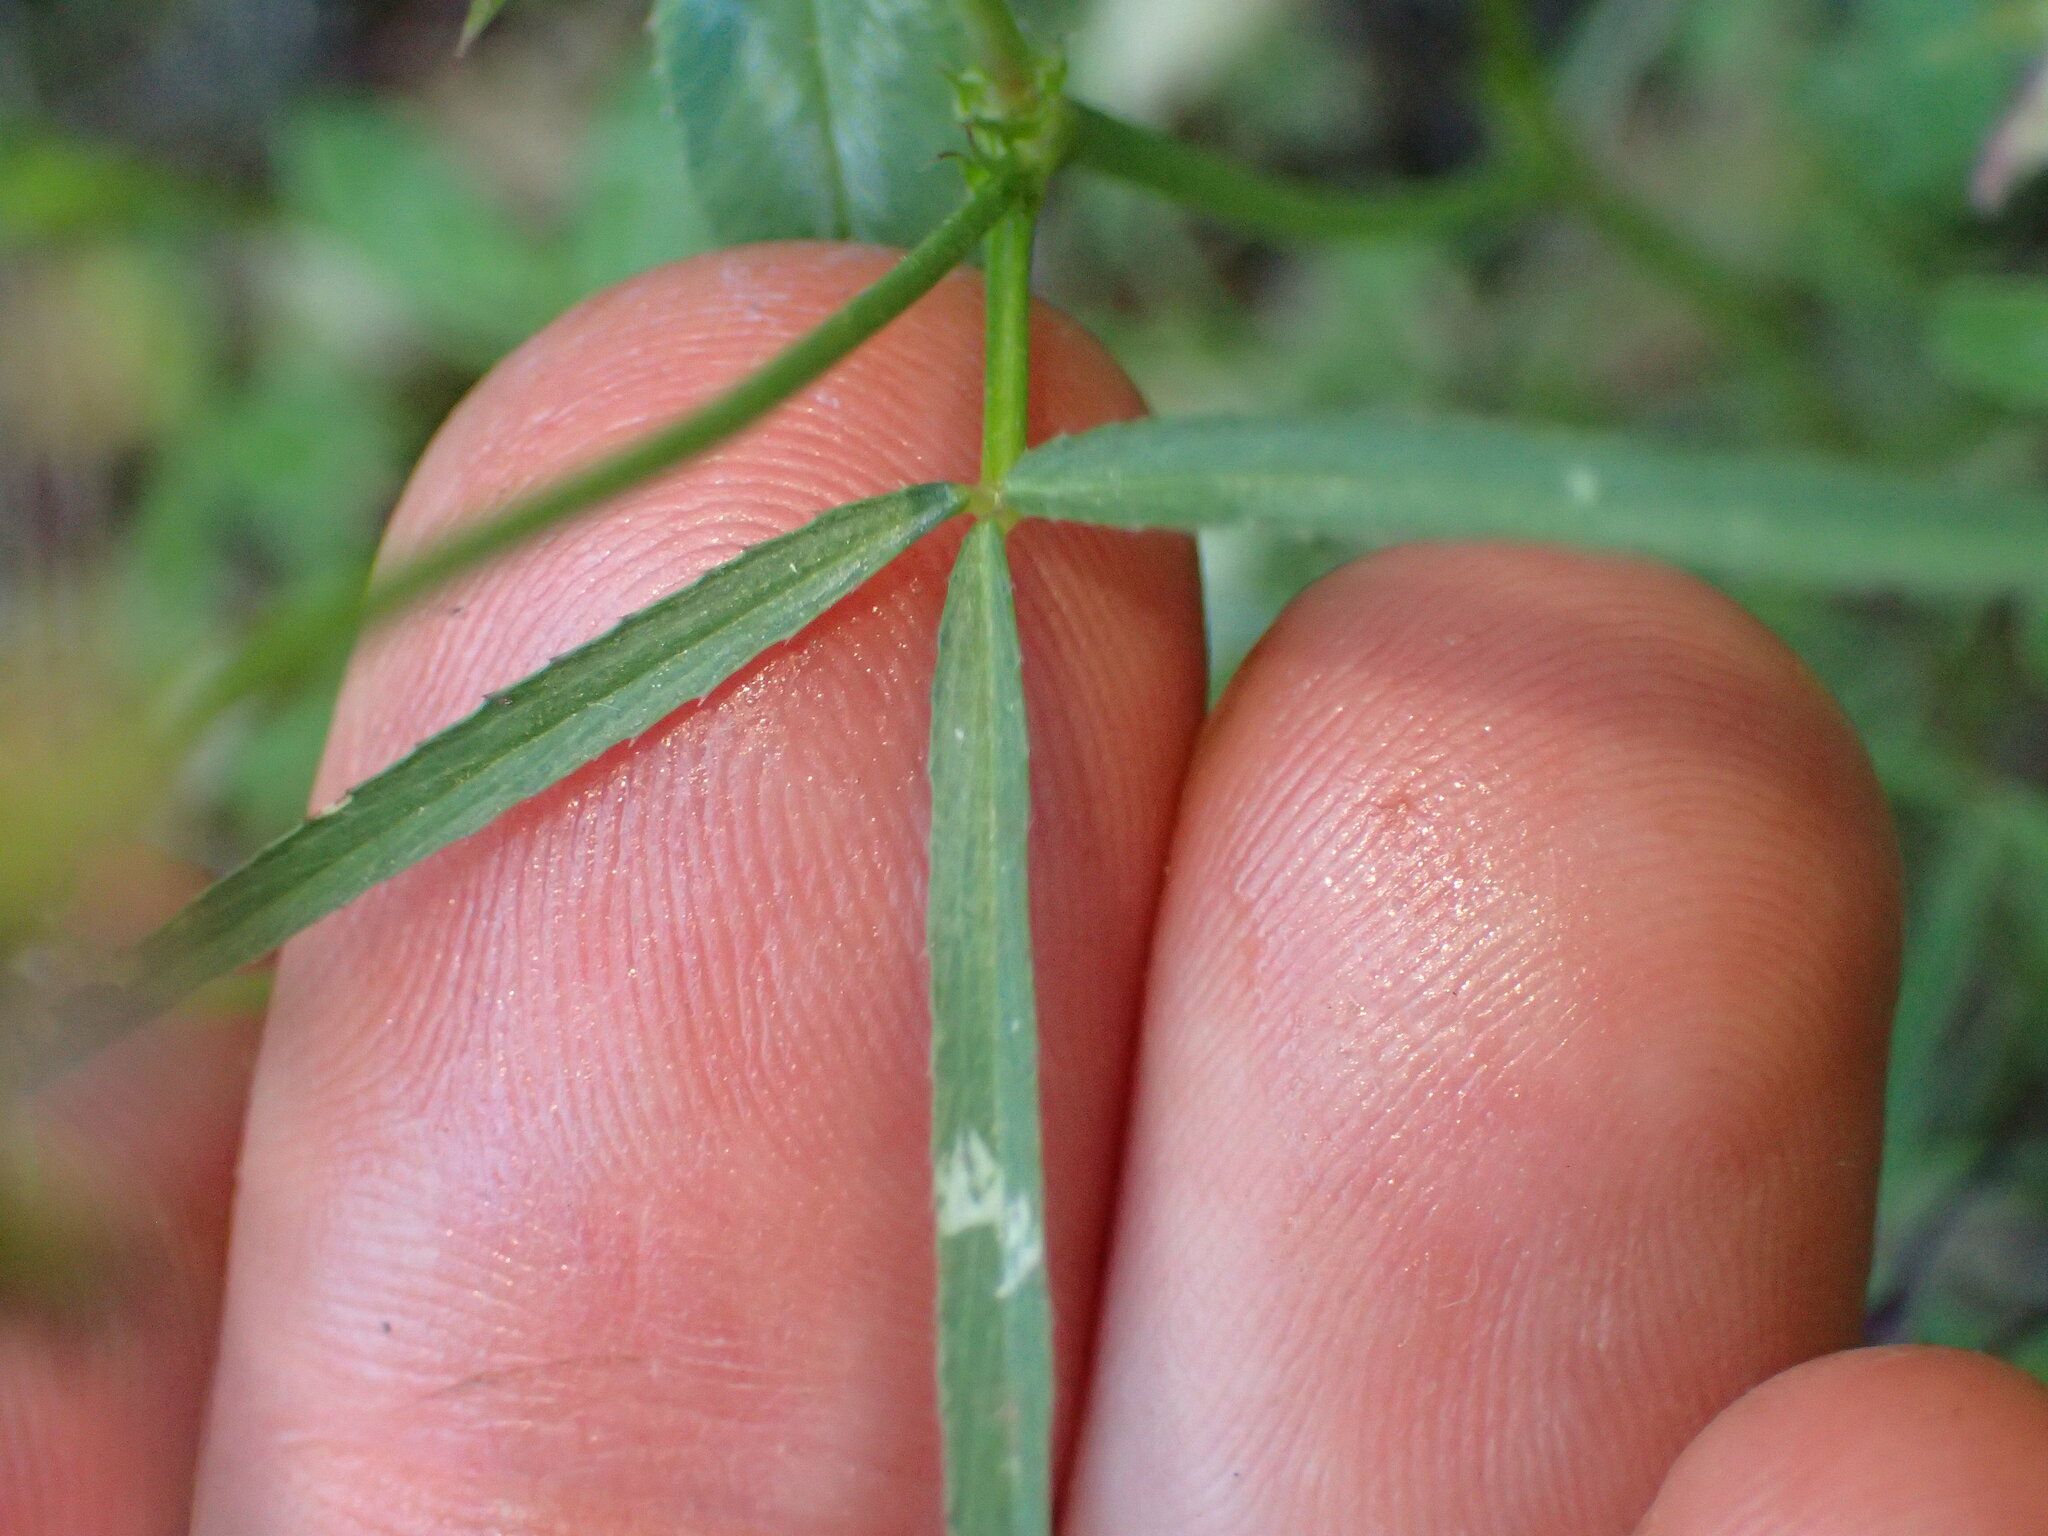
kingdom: Plantae
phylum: Tracheophyta
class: Magnoliopsida
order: Fabales
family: Fabaceae
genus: Trifolium
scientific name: Trifolium willdenovii
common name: Tomcat clover
